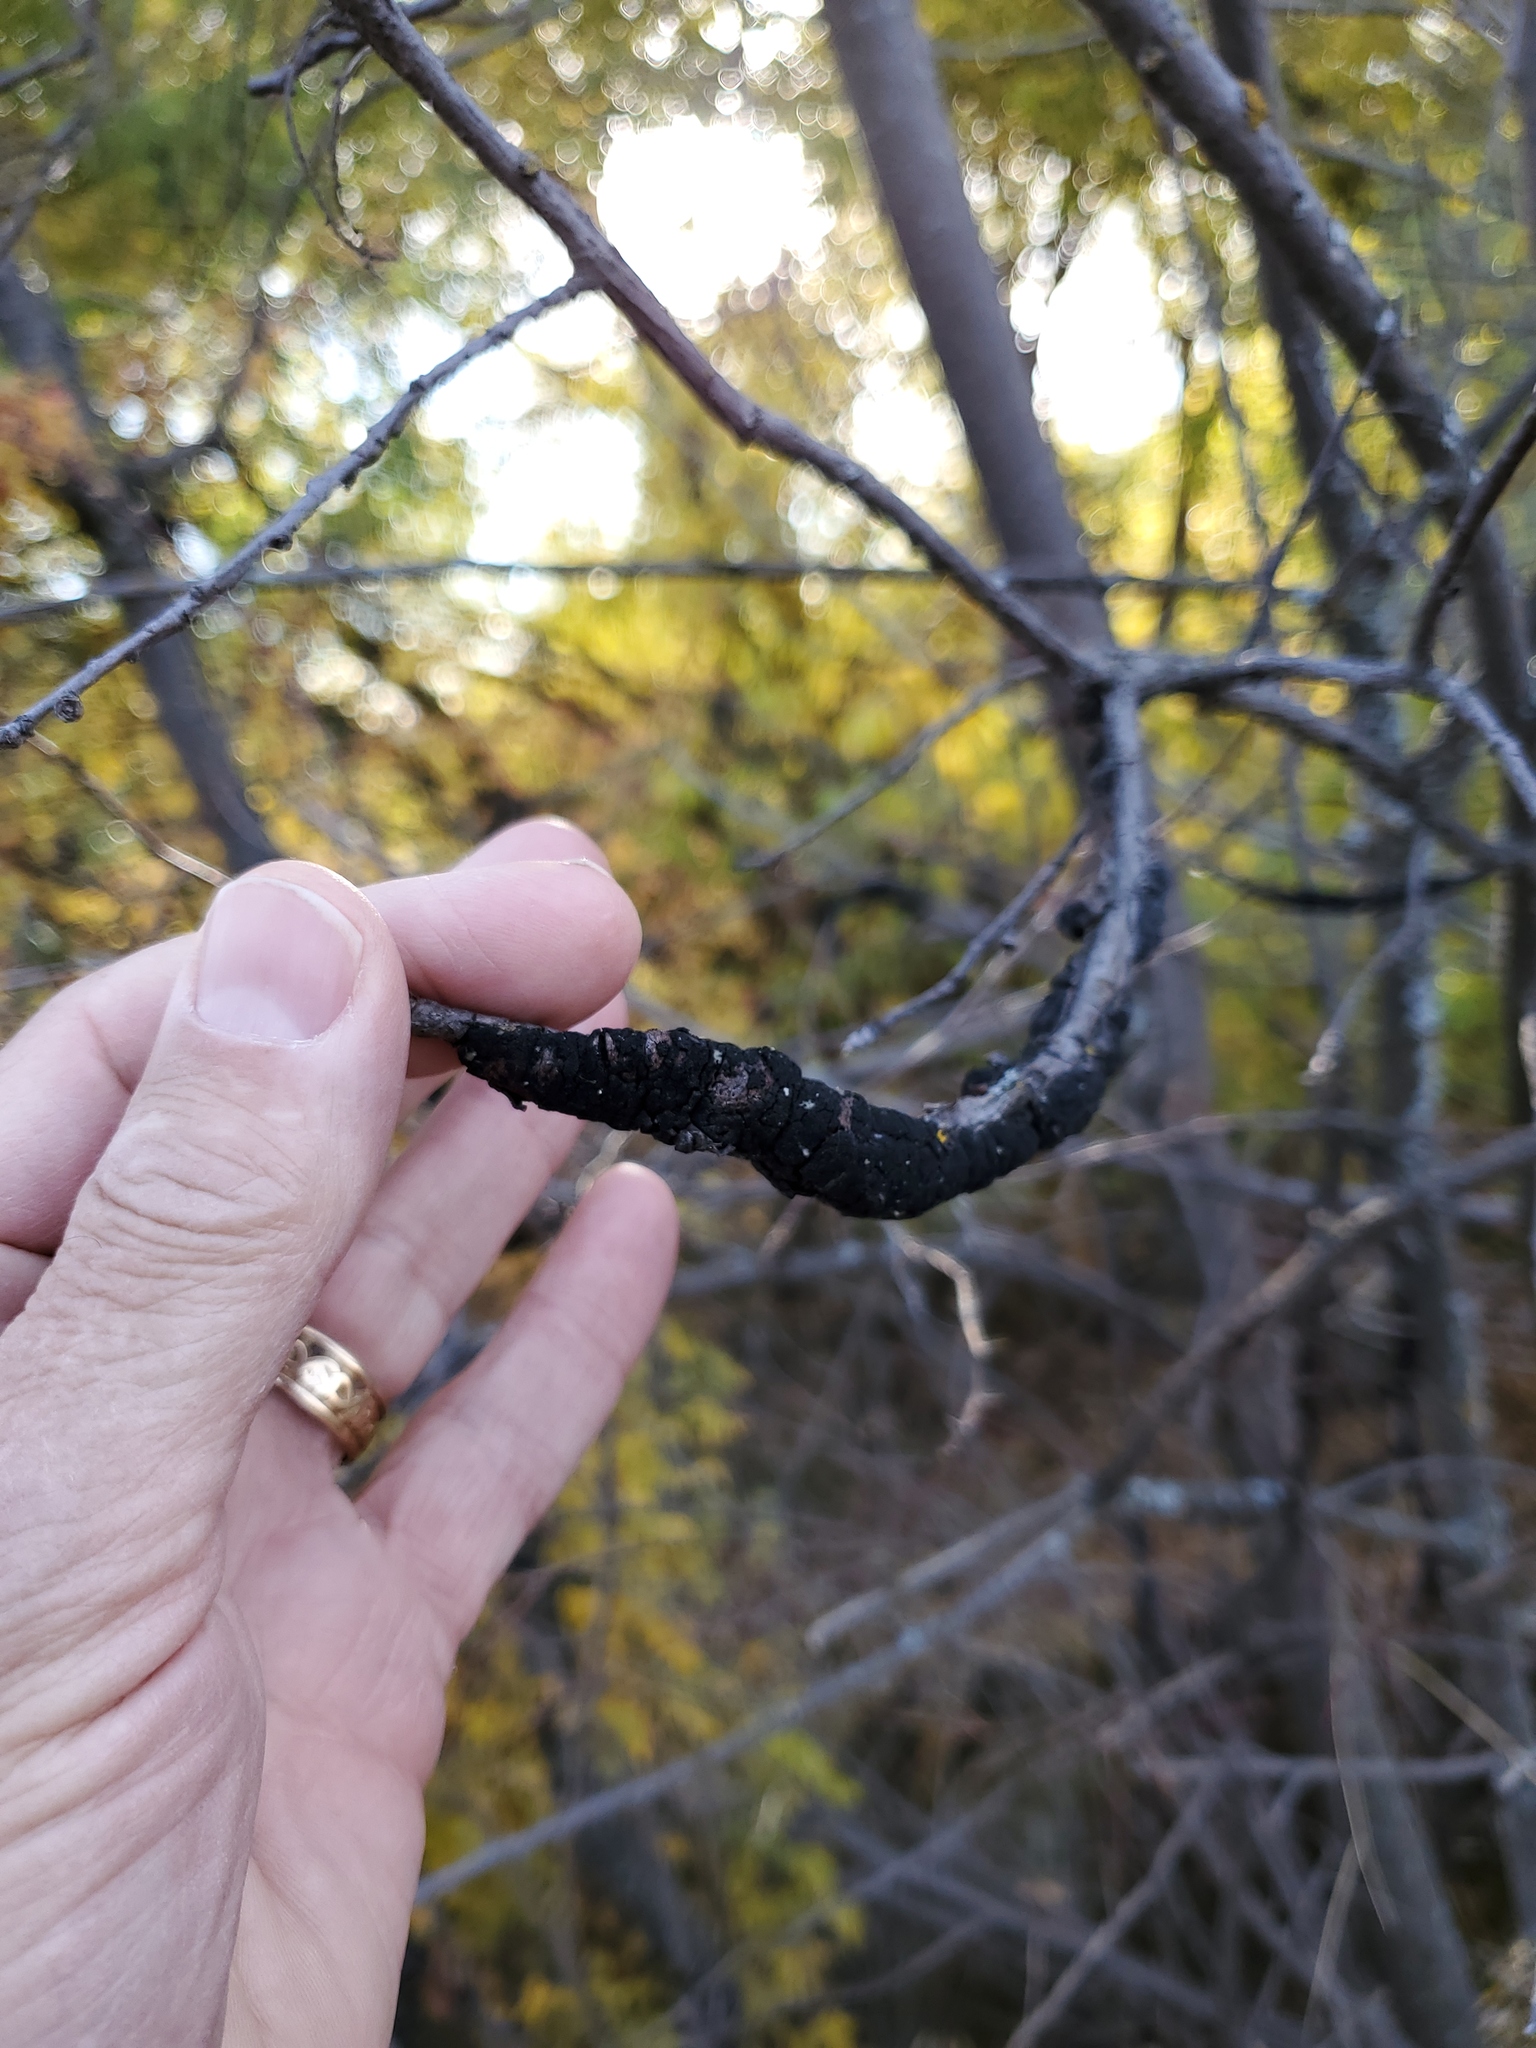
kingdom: Fungi
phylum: Ascomycota
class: Dothideomycetes
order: Venturiales
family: Venturiaceae
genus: Apiosporina
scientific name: Apiosporina morbosa
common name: Black knot
